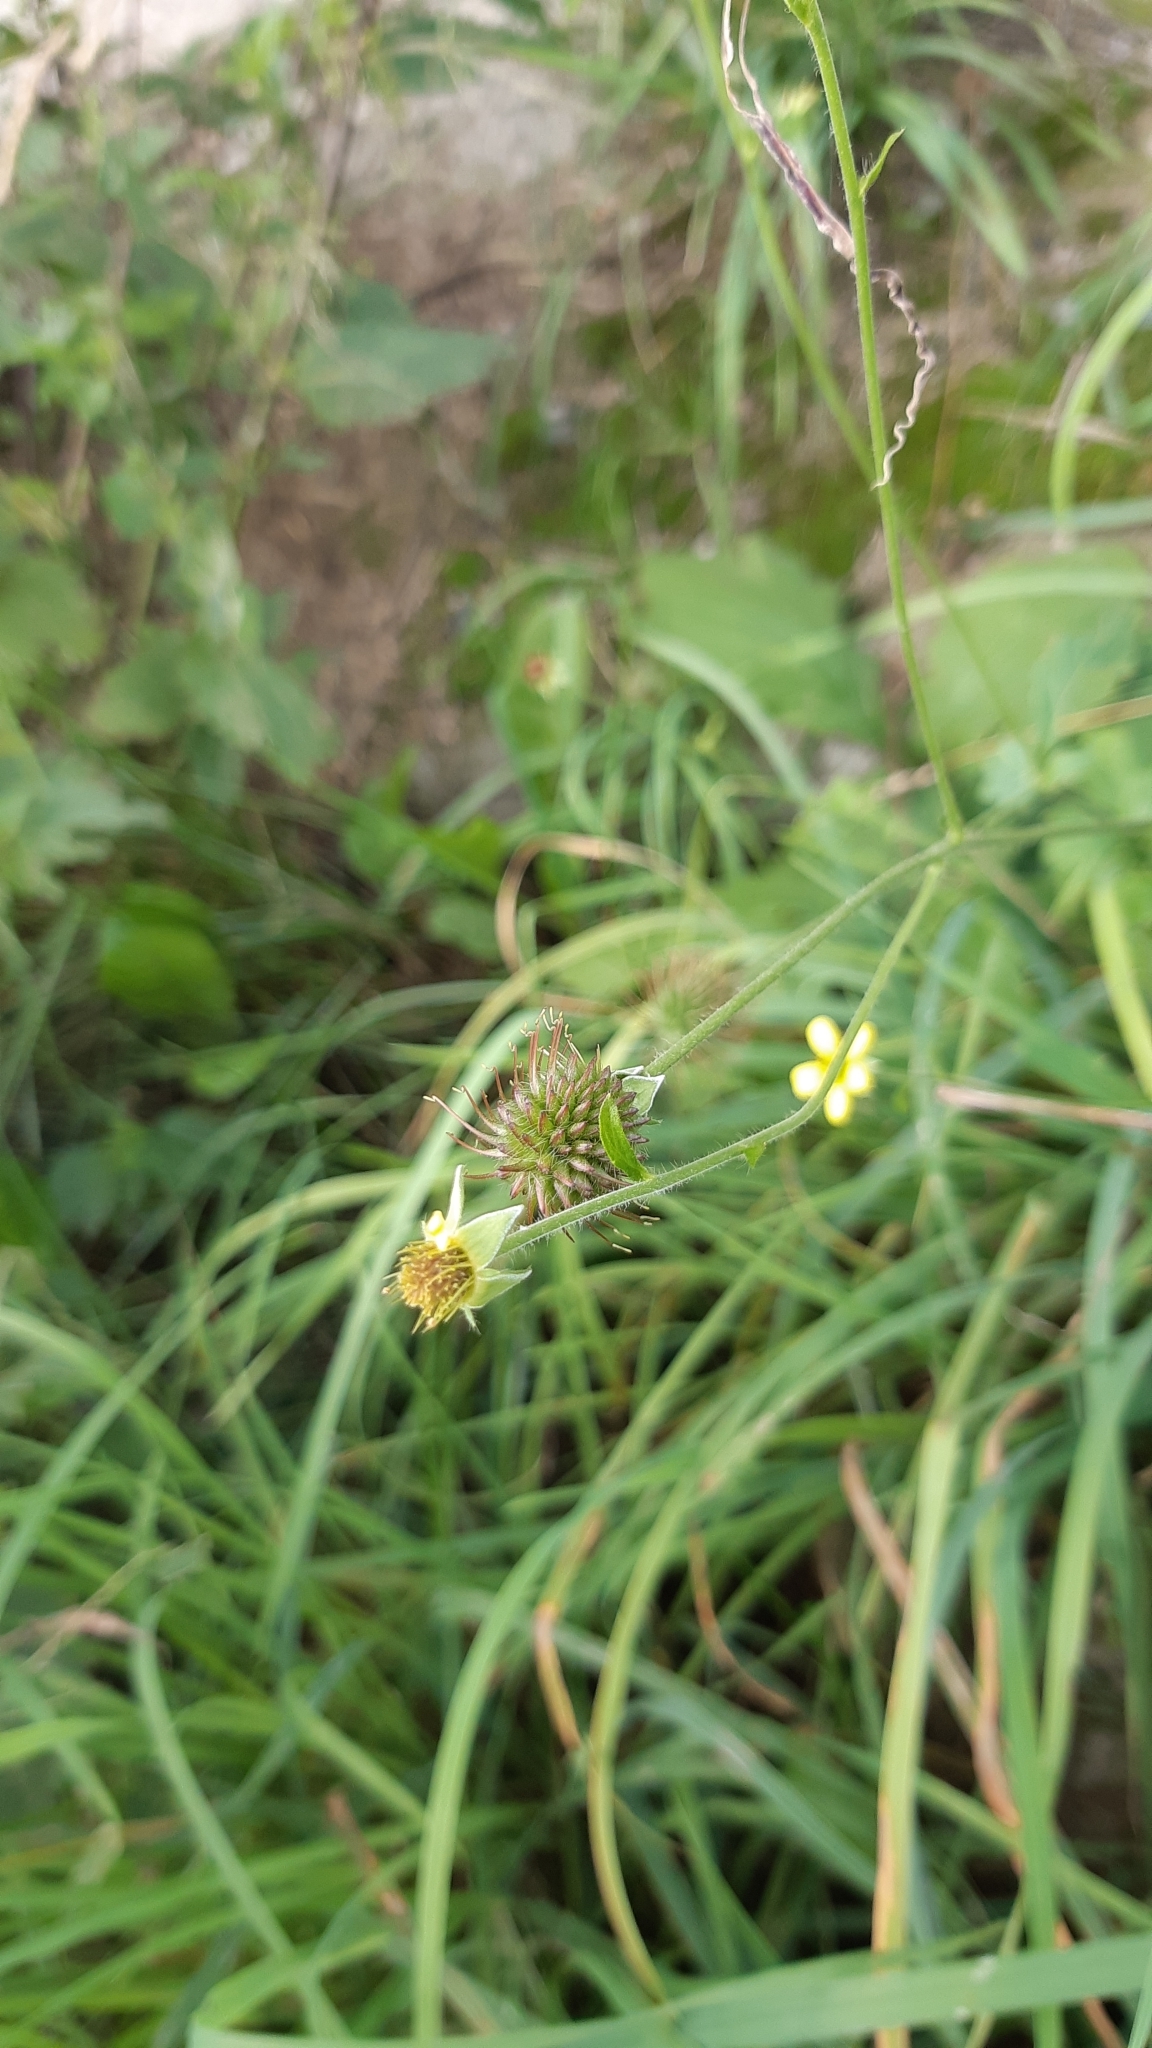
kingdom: Plantae
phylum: Tracheophyta
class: Magnoliopsida
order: Rosales
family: Rosaceae
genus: Geum
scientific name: Geum urbanum
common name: Wood avens
